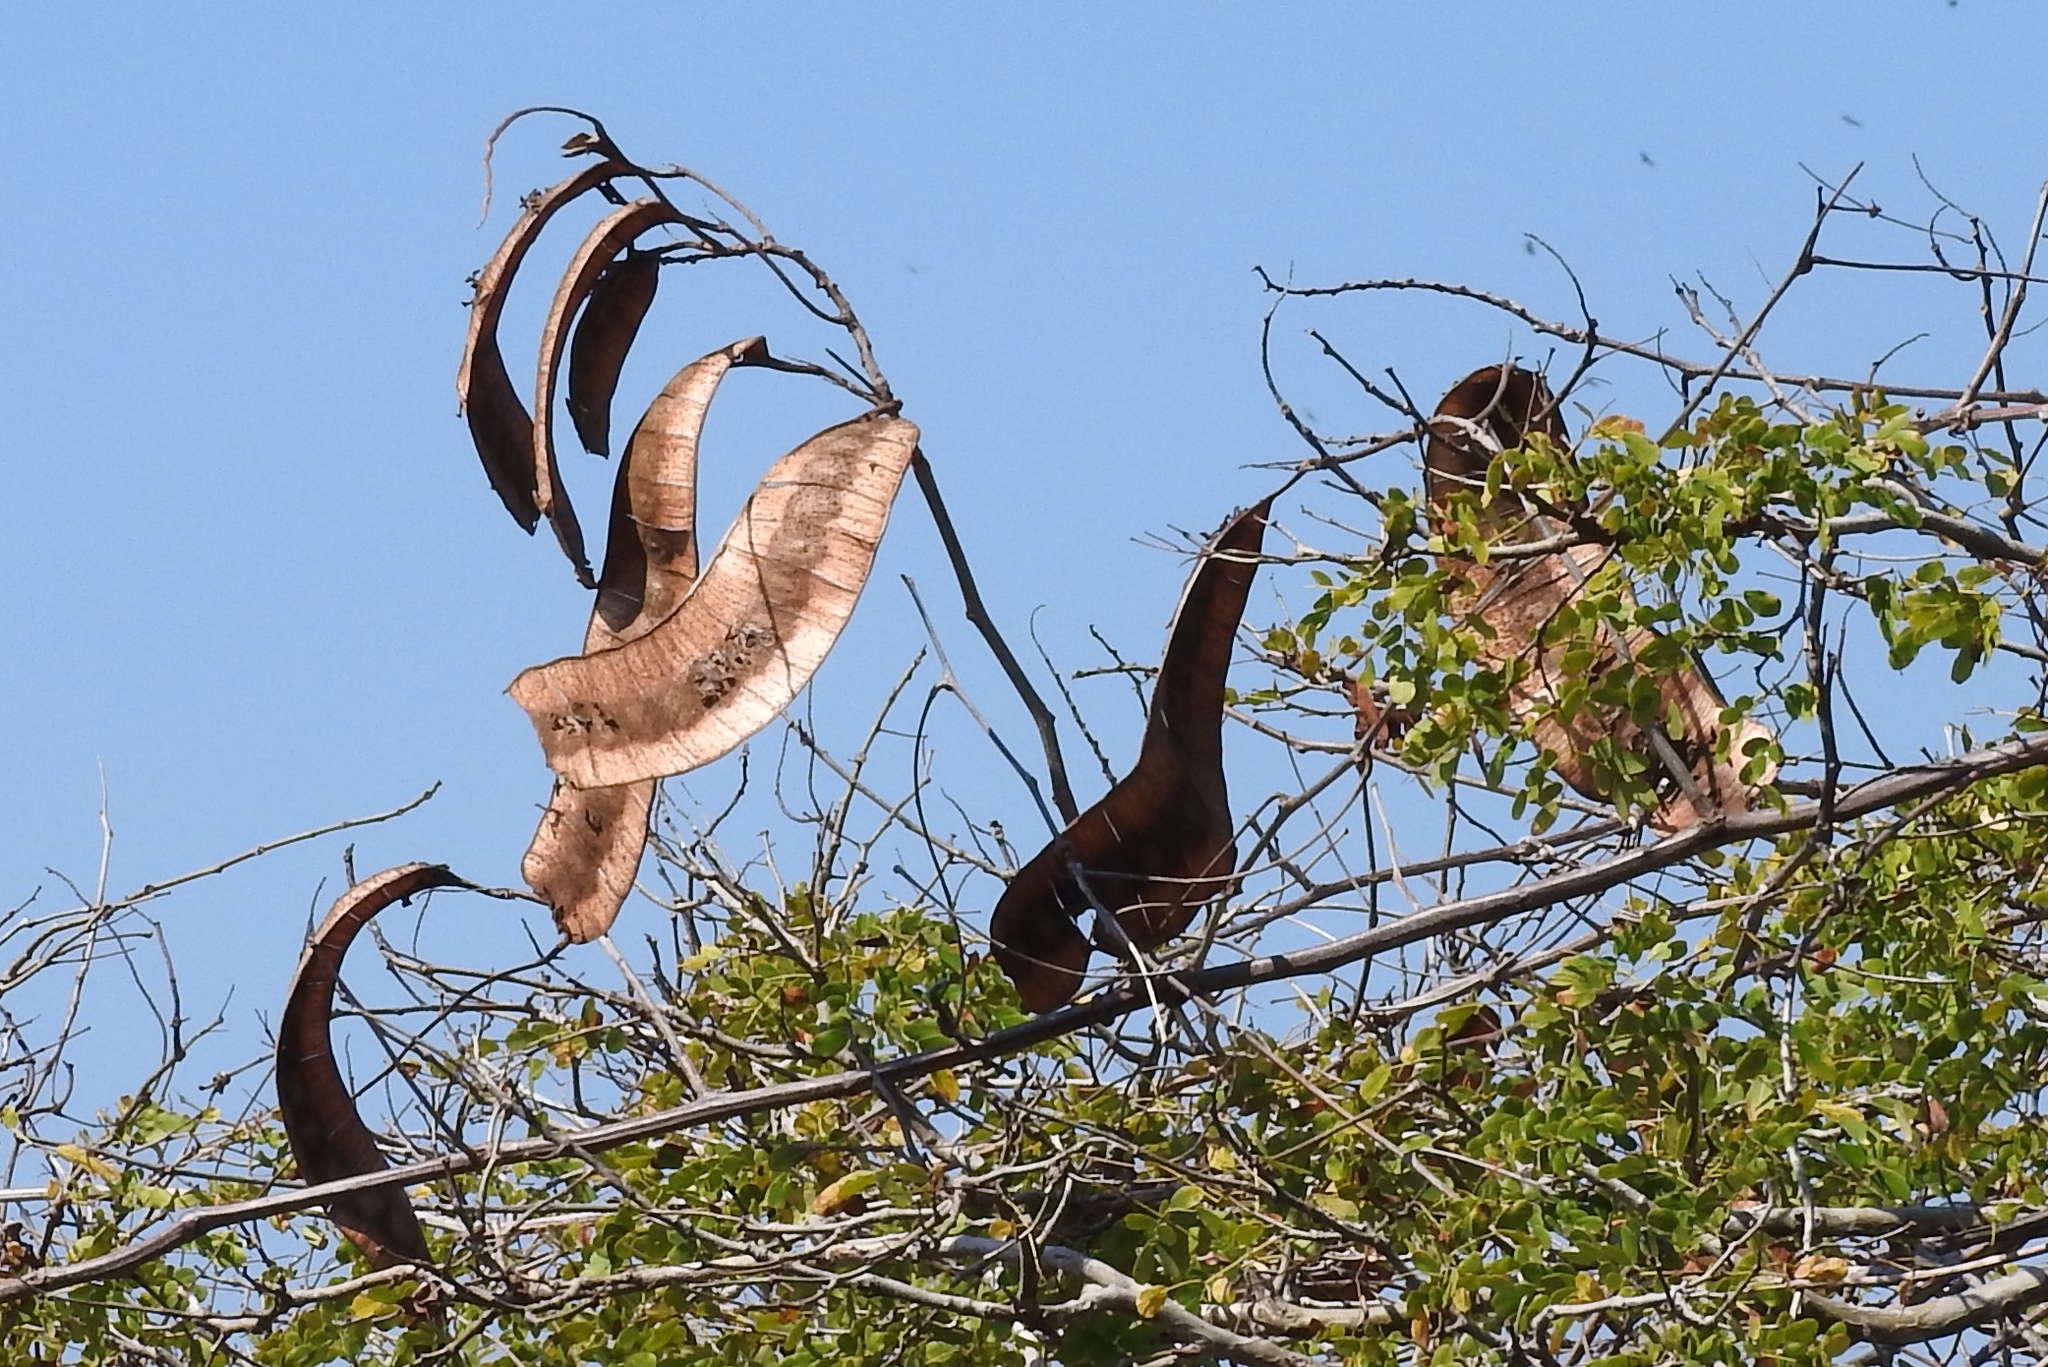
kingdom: Plantae
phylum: Tracheophyta
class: Magnoliopsida
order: Fabales
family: Fabaceae
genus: Entada
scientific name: Entada polystachya
